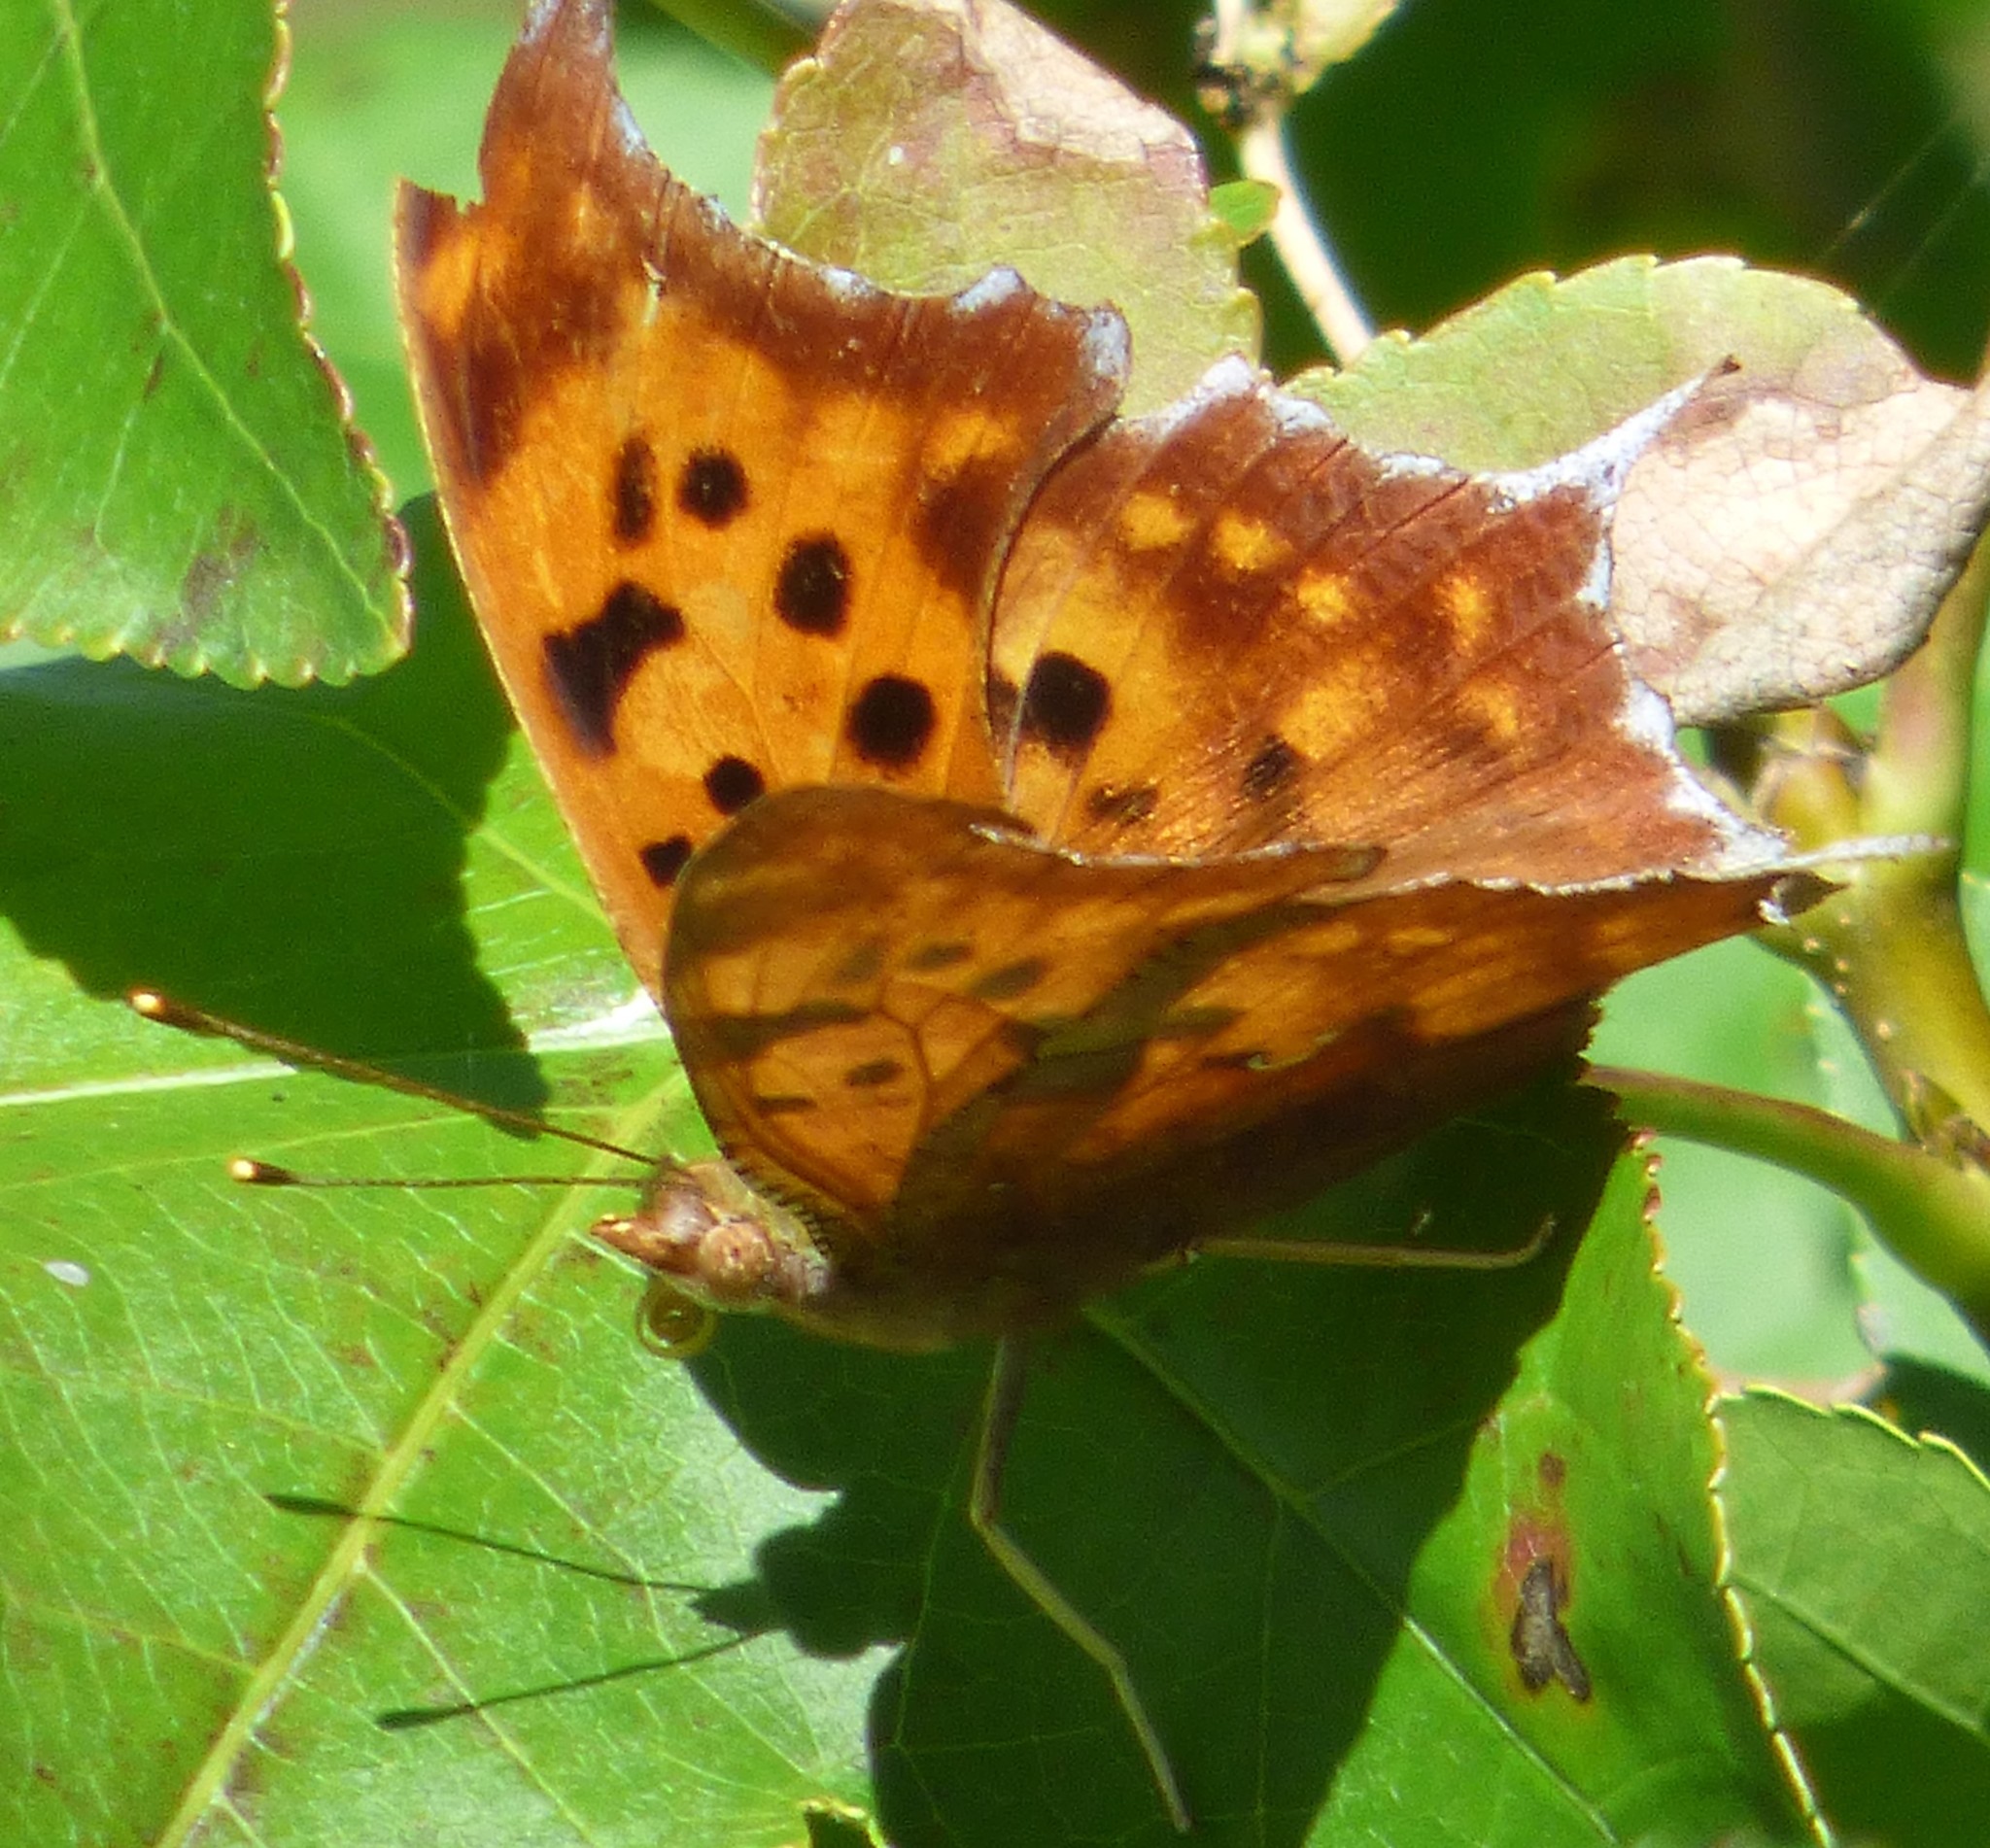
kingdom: Animalia
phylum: Arthropoda
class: Insecta
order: Lepidoptera
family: Nymphalidae
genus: Polygonia
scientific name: Polygonia interrogationis
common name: Question mark
